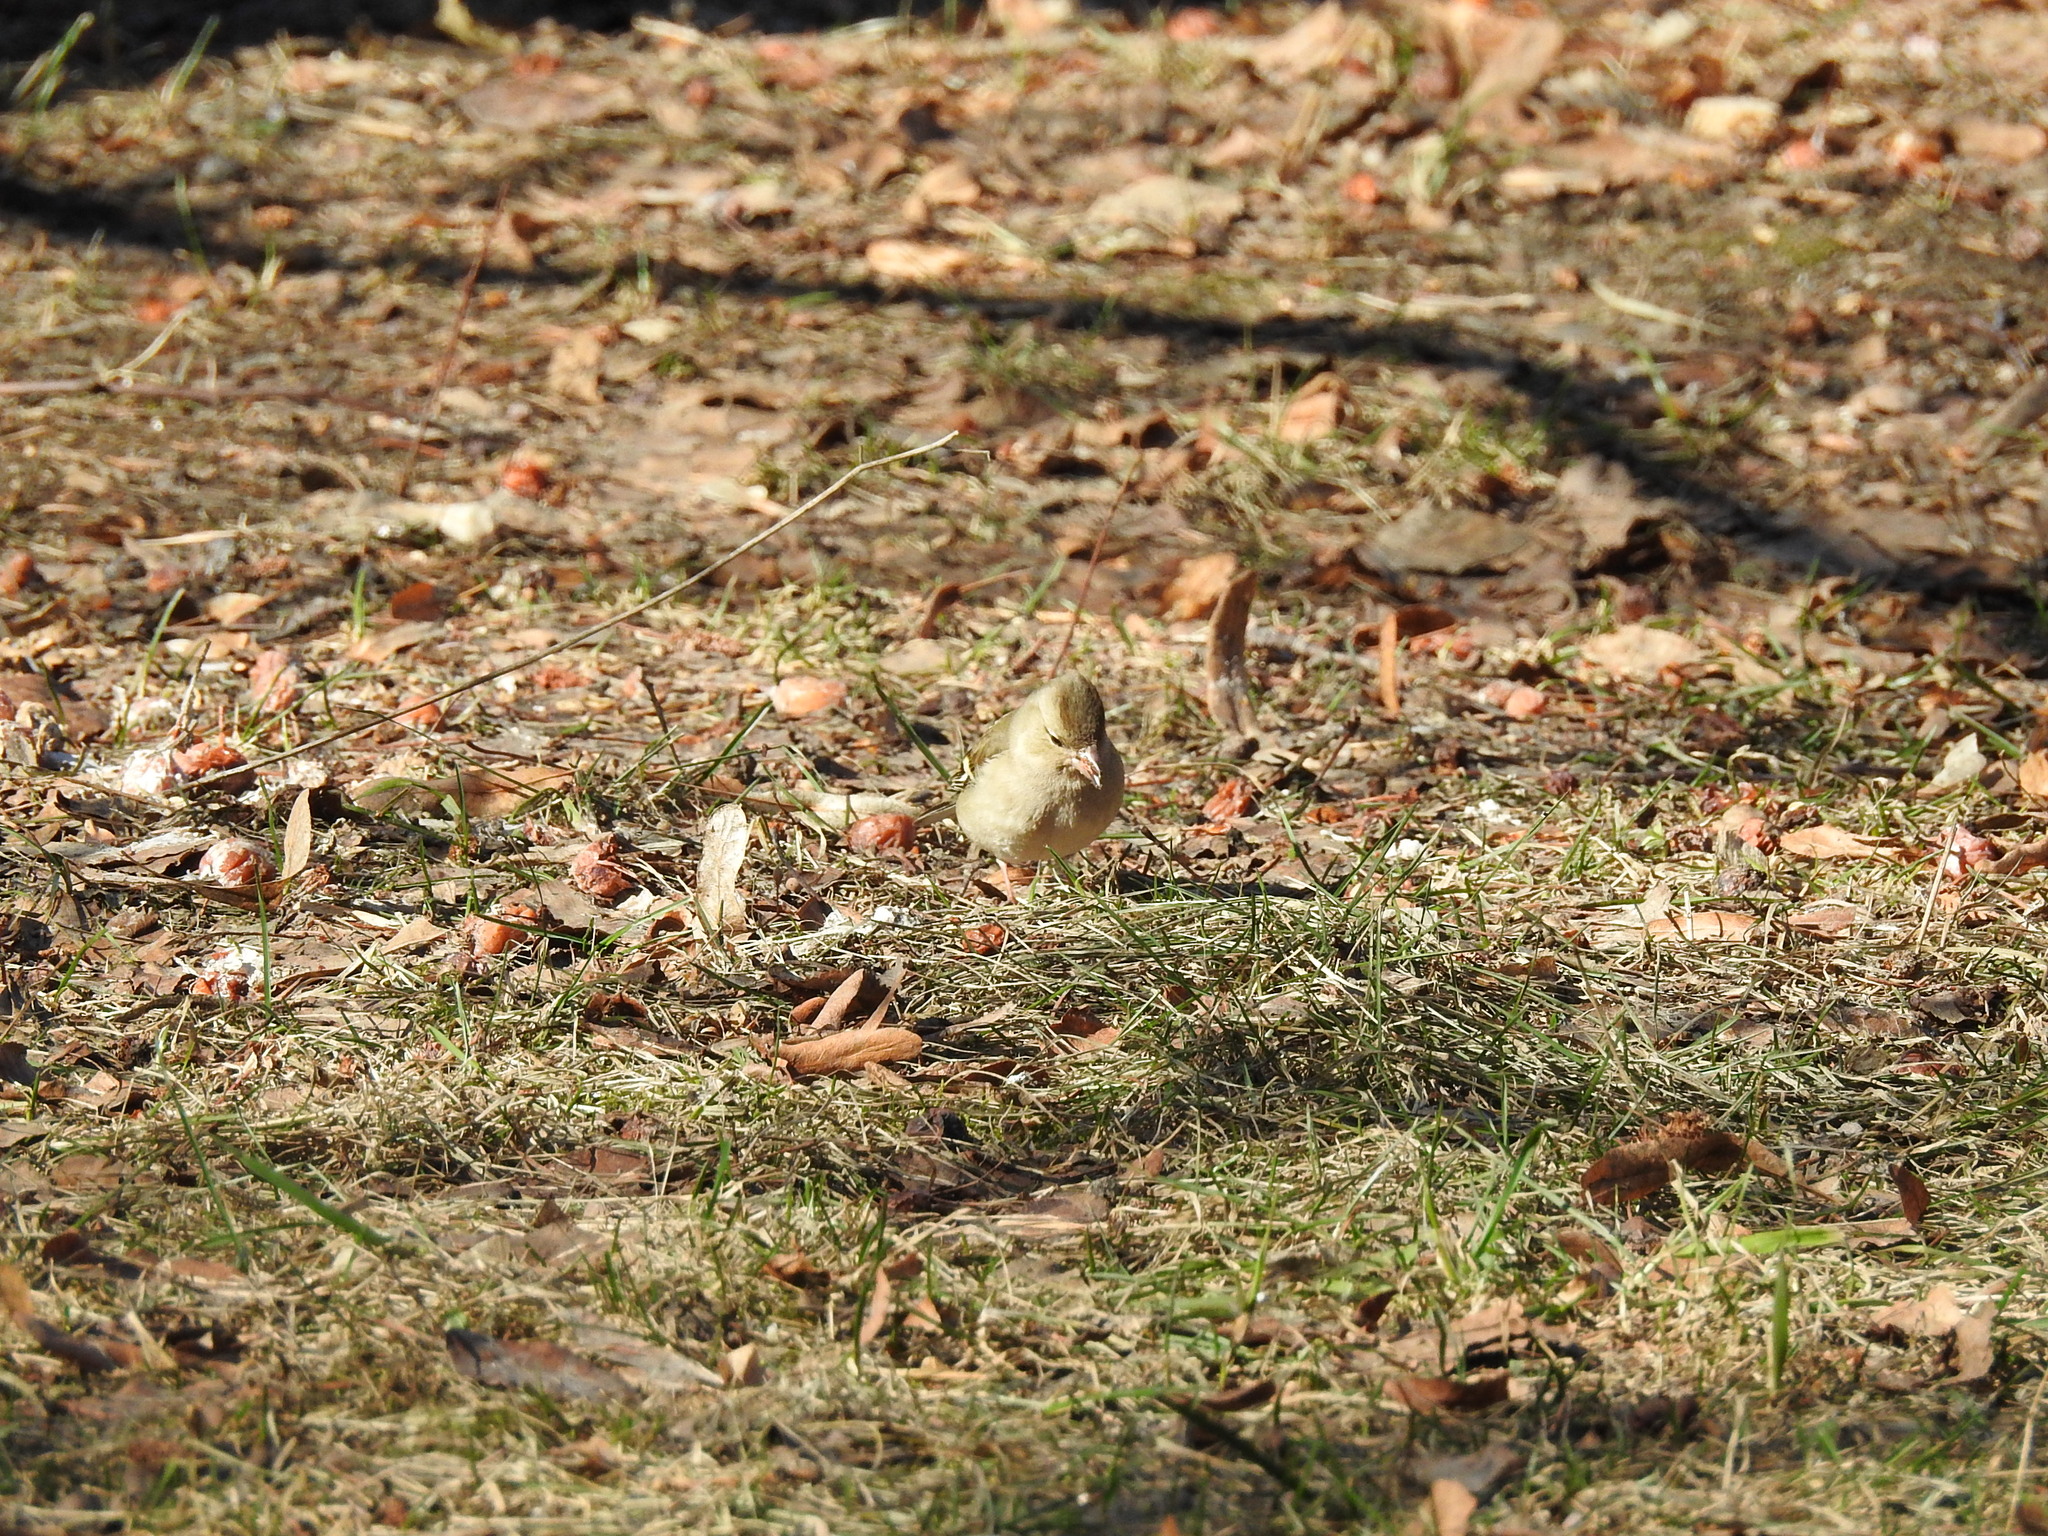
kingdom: Animalia
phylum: Chordata
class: Aves
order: Passeriformes
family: Fringillidae
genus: Fringilla
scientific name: Fringilla coelebs
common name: Common chaffinch
